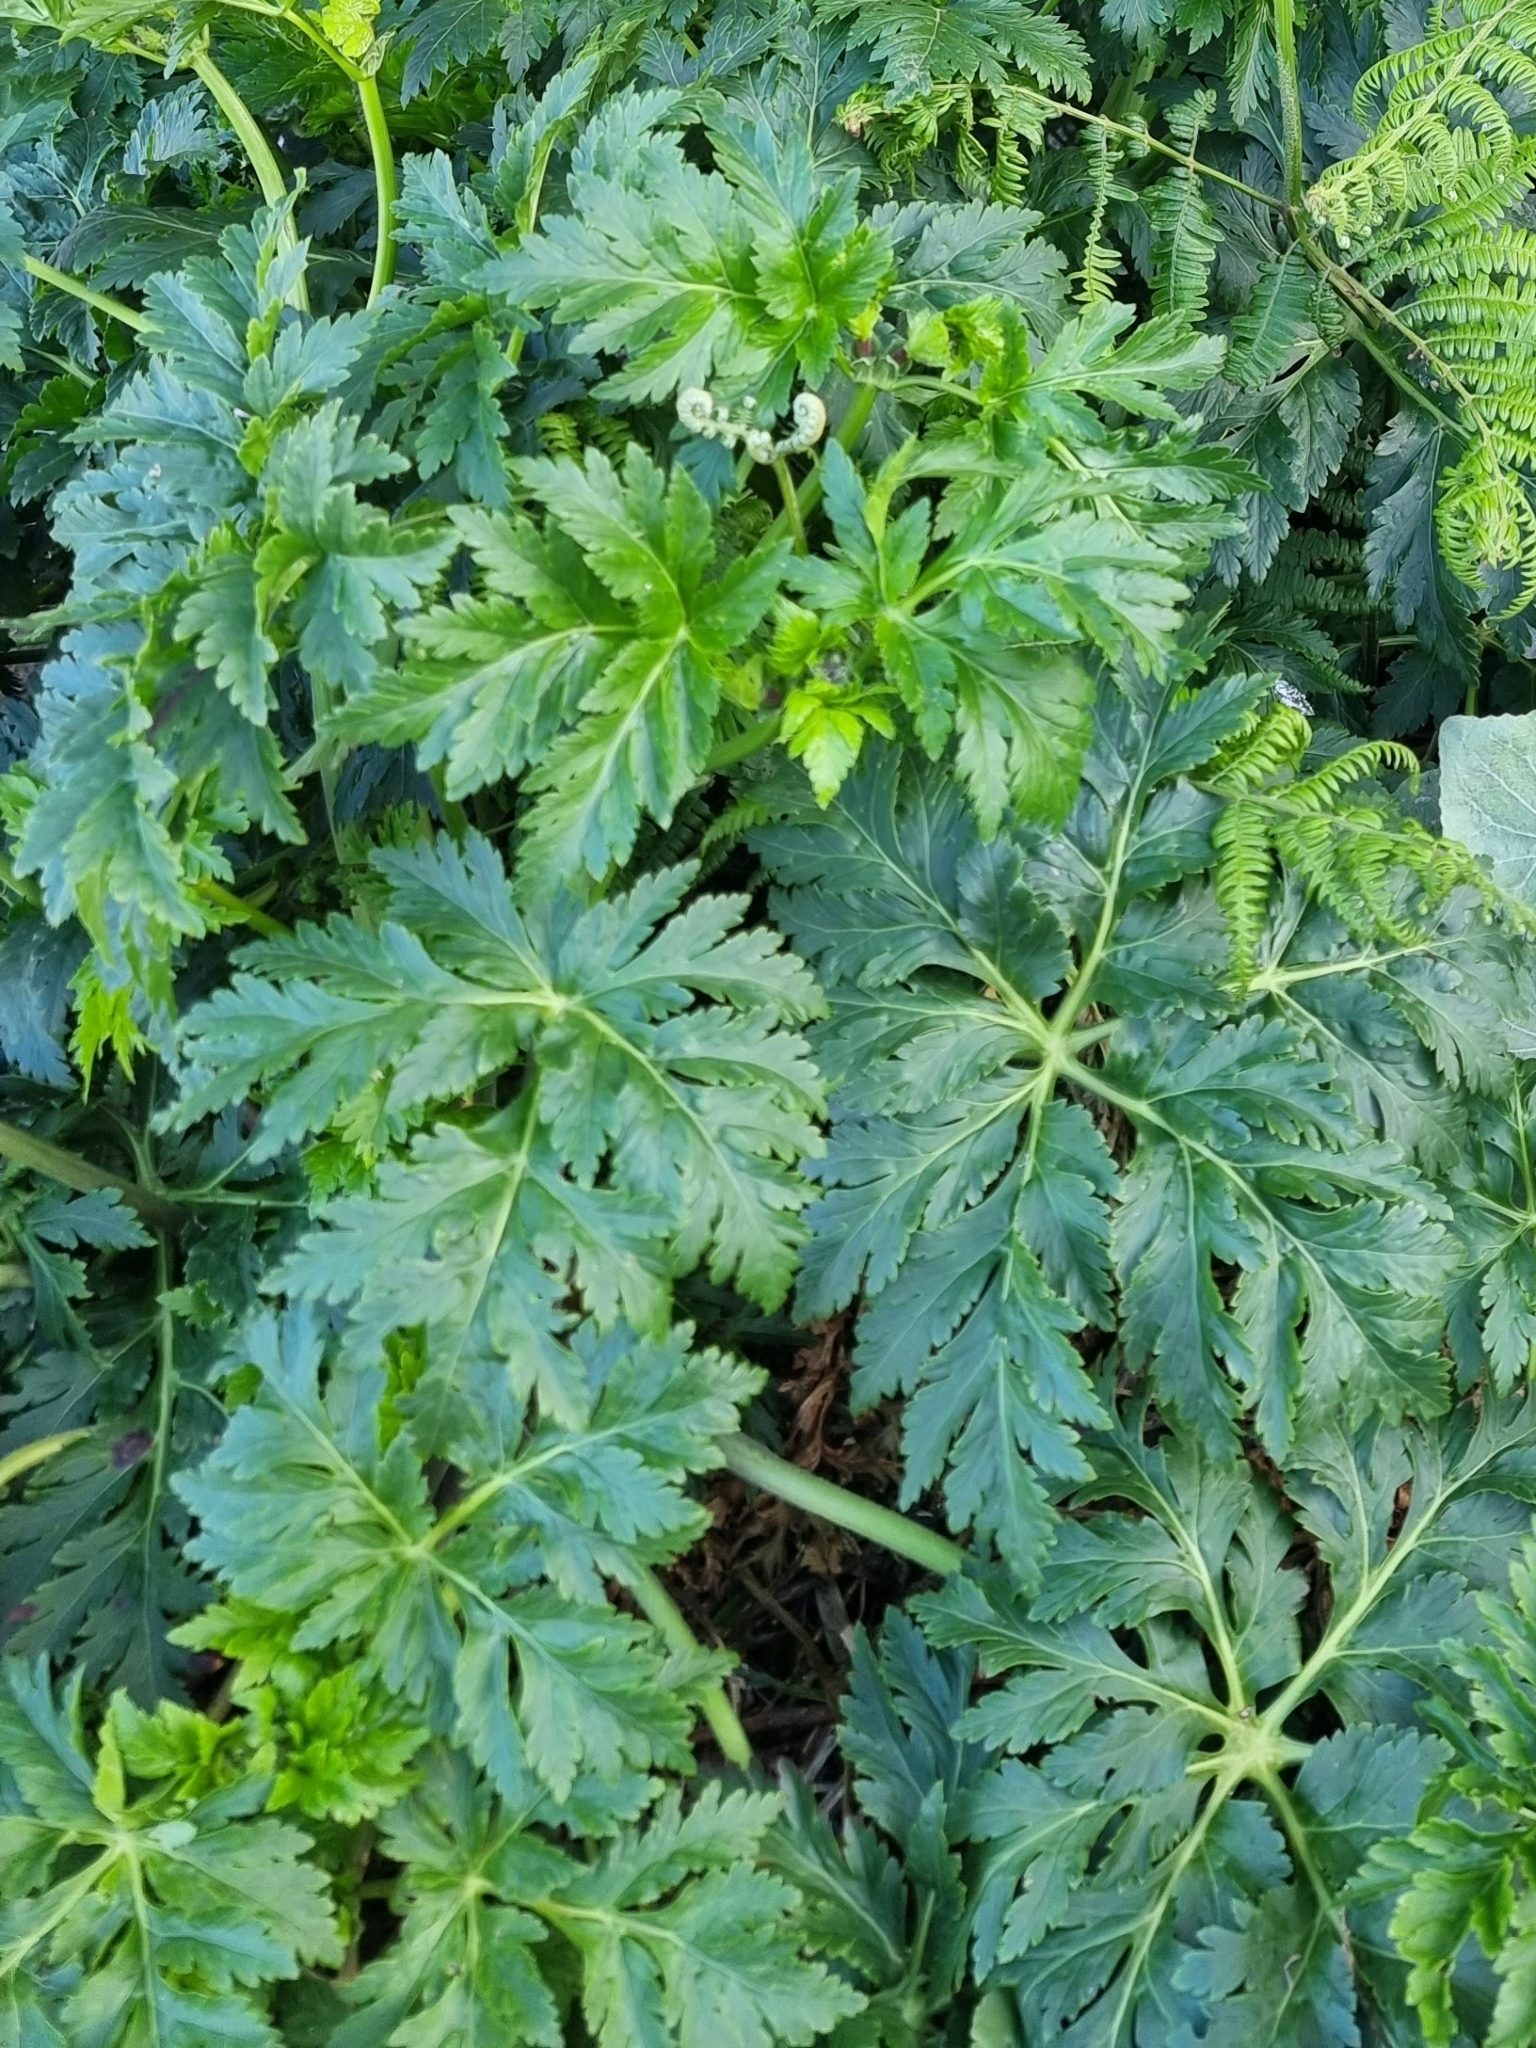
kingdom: Plantae
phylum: Tracheophyta
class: Magnoliopsida
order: Geraniales
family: Geraniaceae
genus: Geranium
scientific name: Geranium palmatum
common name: Canary island geranium
